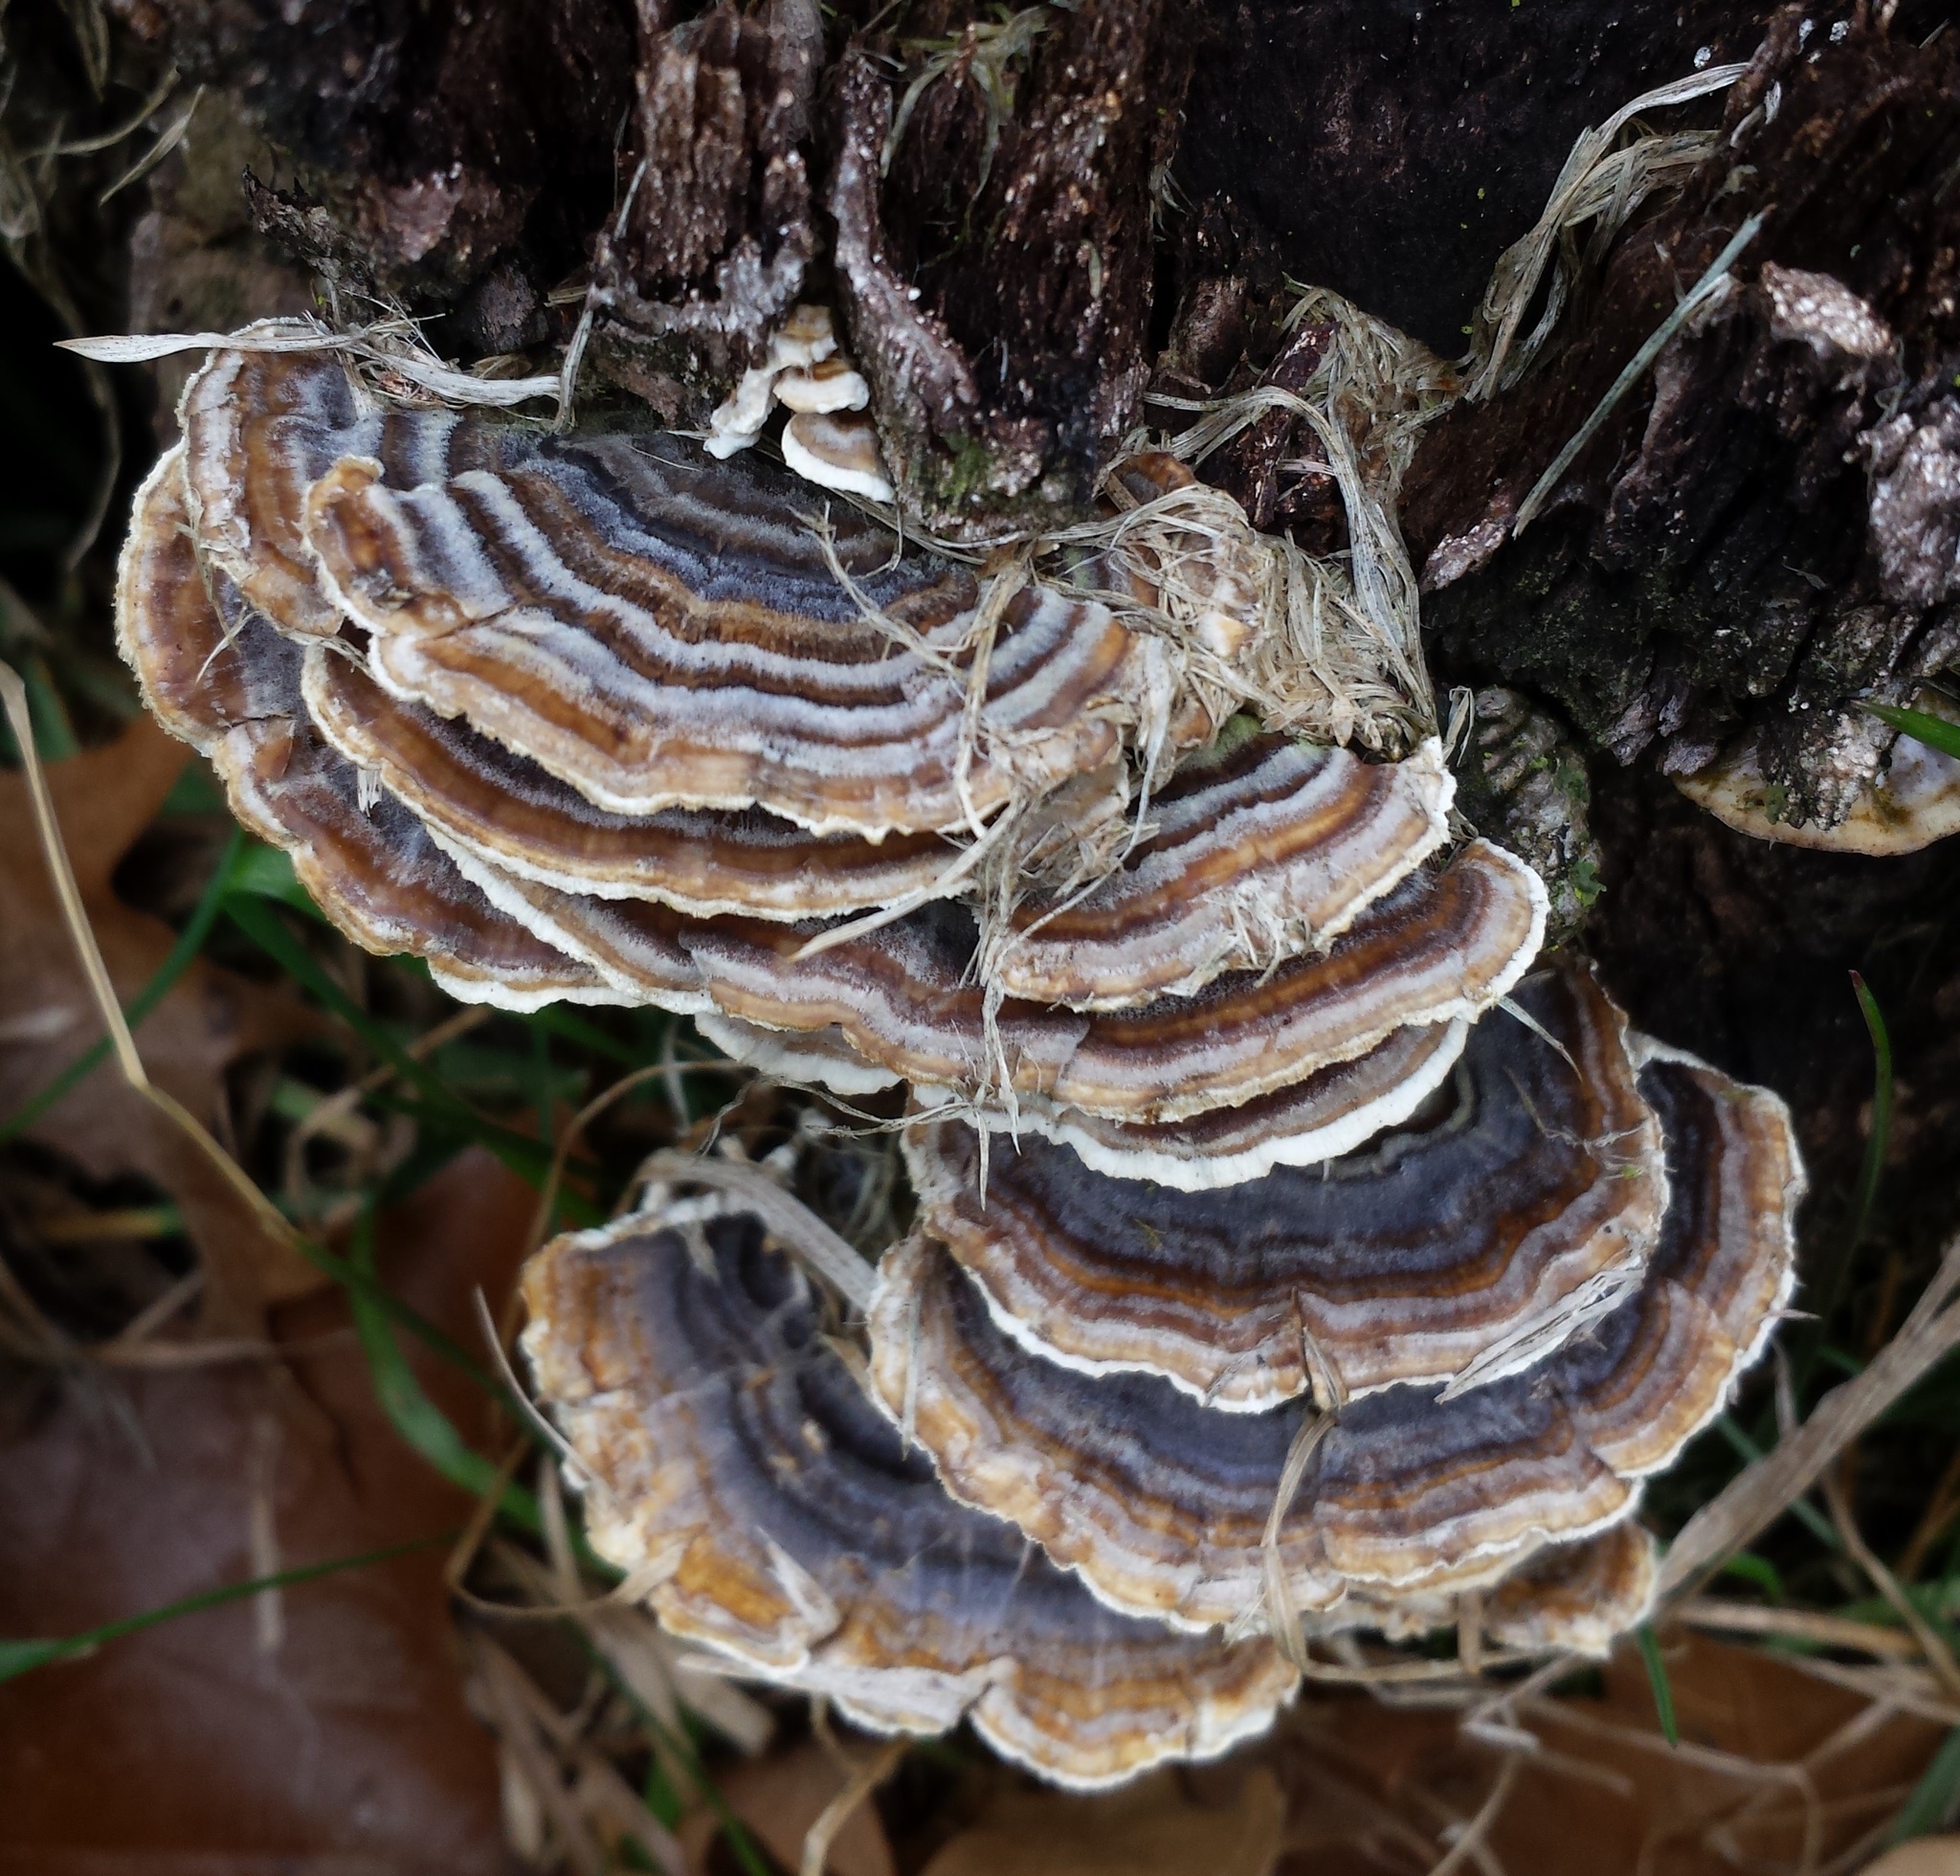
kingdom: Fungi
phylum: Basidiomycota
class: Agaricomycetes
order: Polyporales
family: Polyporaceae
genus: Trametes
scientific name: Trametes versicolor
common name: Turkeytail
